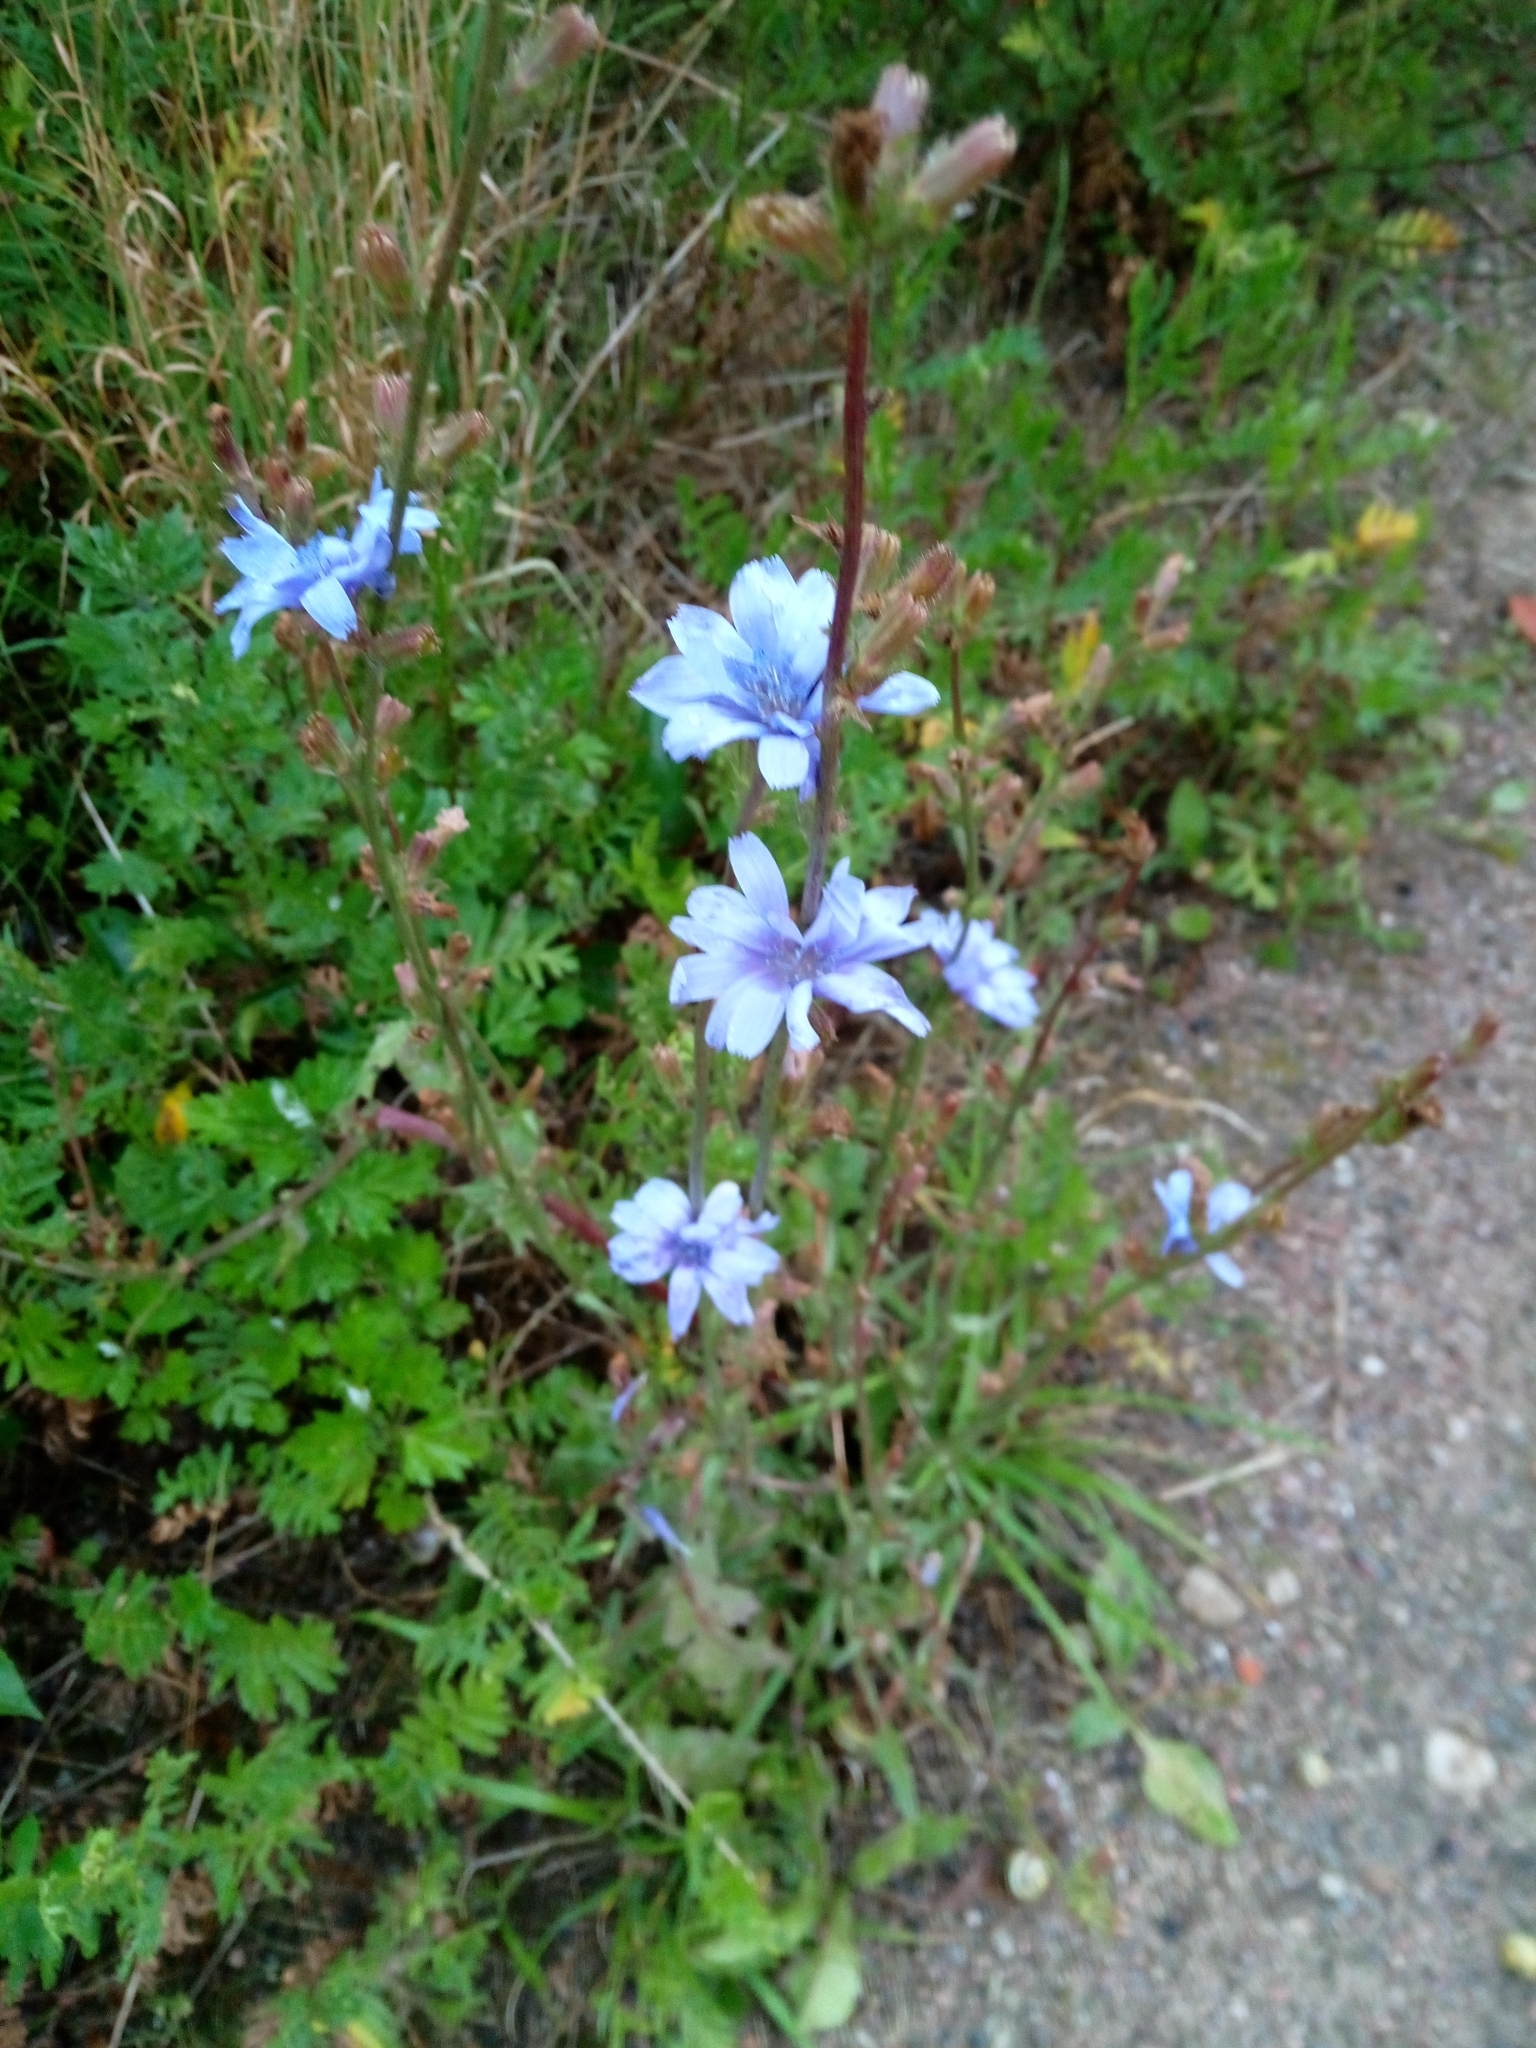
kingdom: Plantae
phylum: Tracheophyta
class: Magnoliopsida
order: Asterales
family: Asteraceae
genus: Cichorium
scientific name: Cichorium intybus
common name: Chicory
